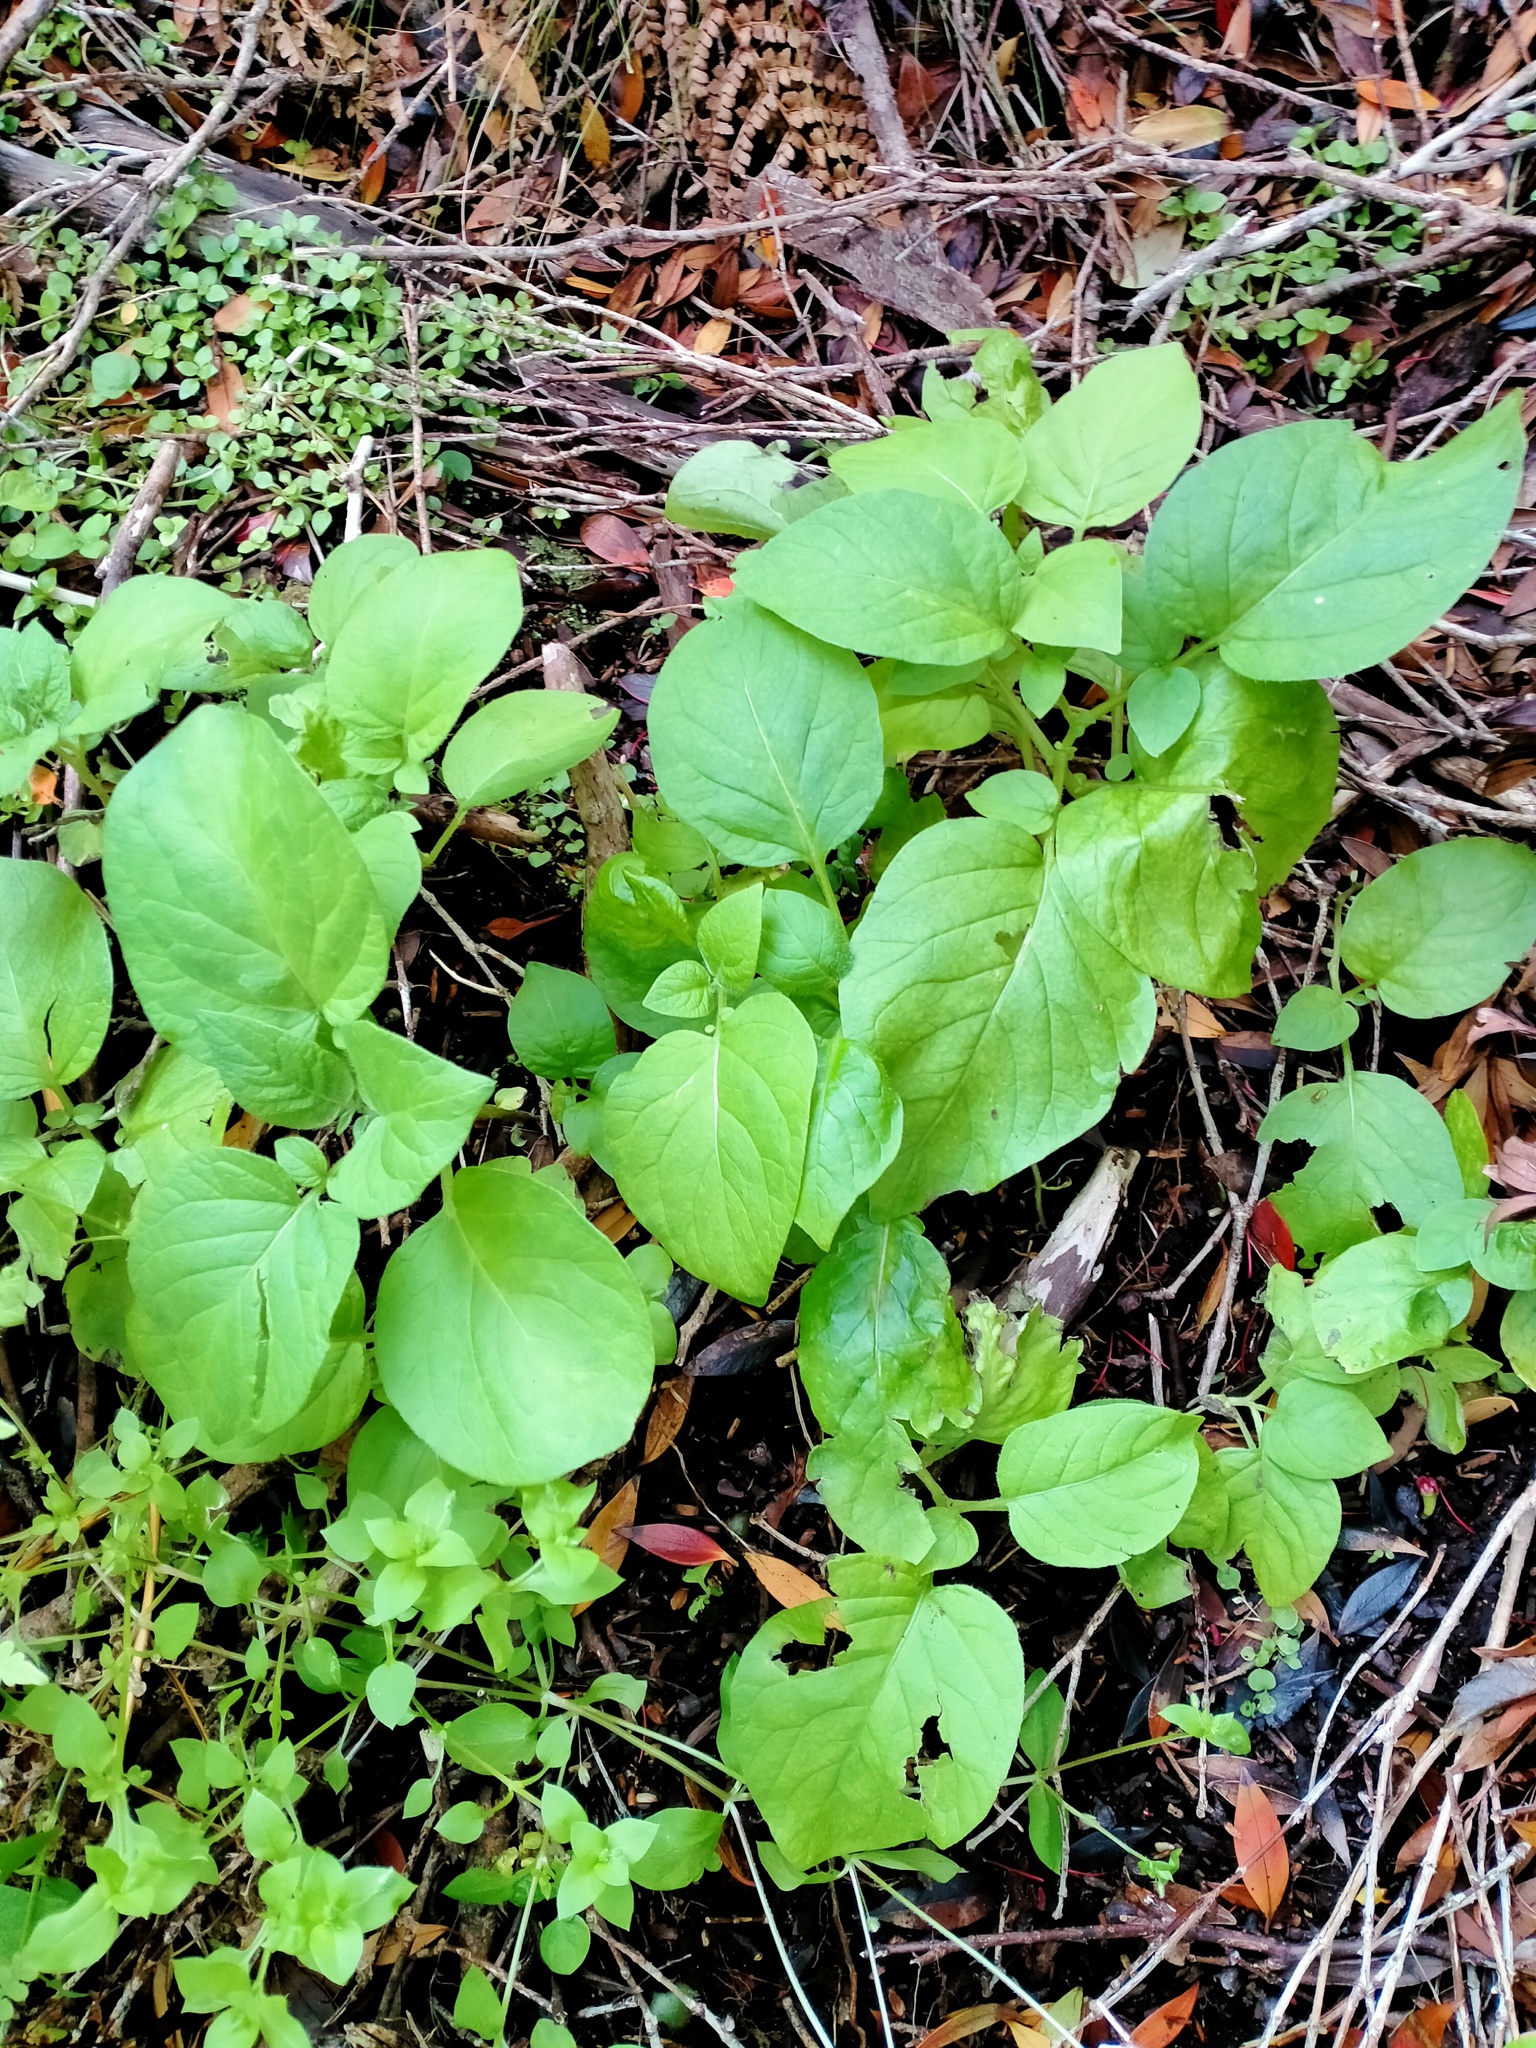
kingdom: Plantae
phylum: Tracheophyta
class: Magnoliopsida
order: Solanales
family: Solanaceae
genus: Solanum
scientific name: Solanum tuberosum
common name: Potato
